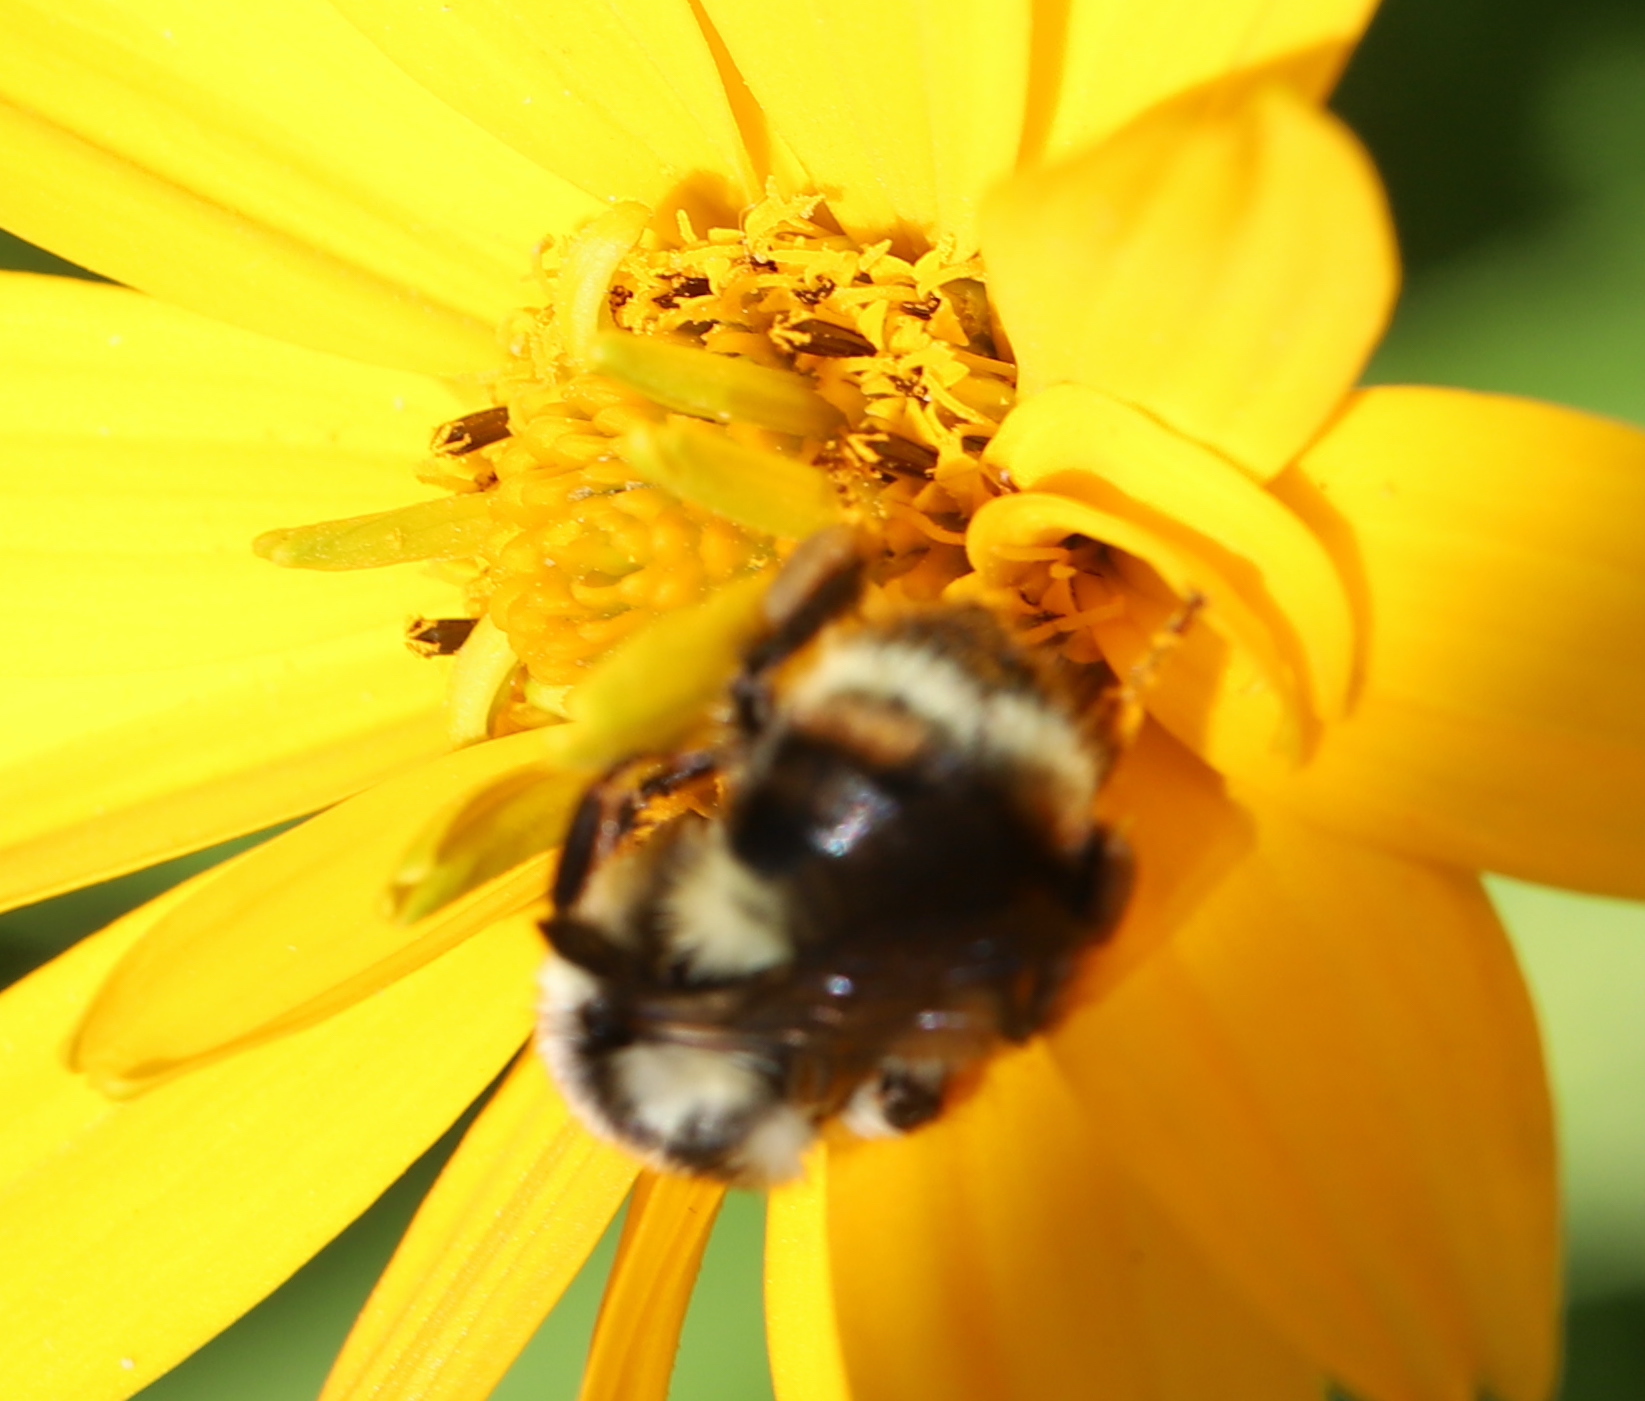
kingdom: Animalia
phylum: Arthropoda
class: Insecta
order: Hymenoptera
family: Apidae
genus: Bombus
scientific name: Bombus vancouverensis
